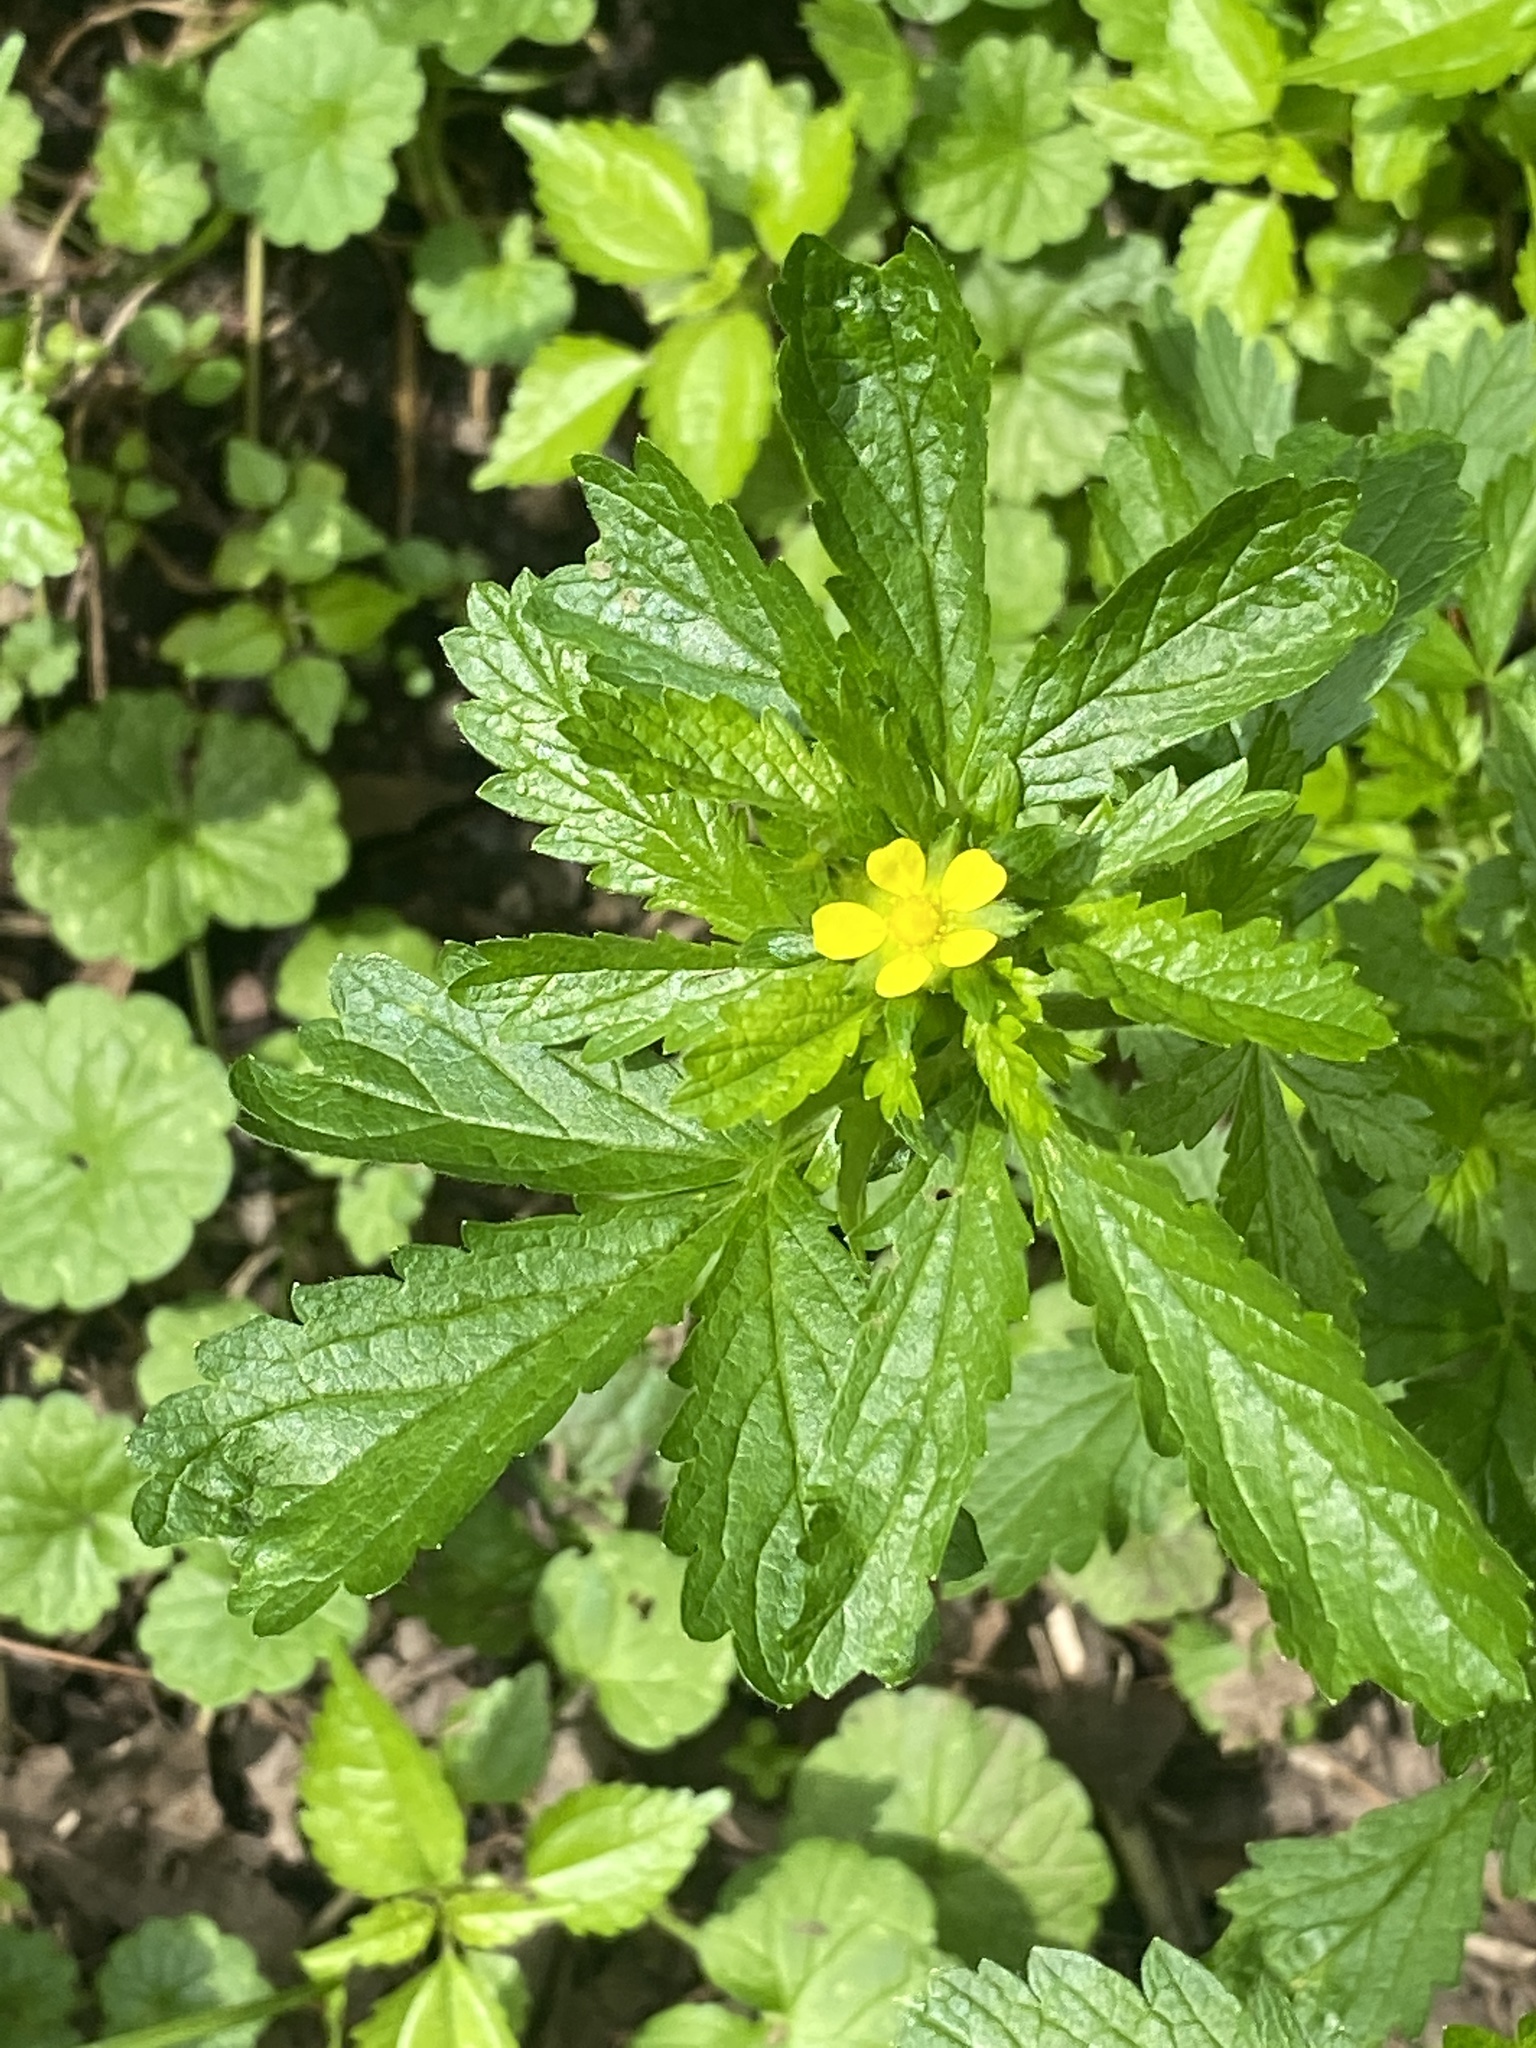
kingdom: Plantae
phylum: Tracheophyta
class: Magnoliopsida
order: Rosales
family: Rosaceae
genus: Potentilla
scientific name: Potentilla norvegica
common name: Ternate-leaved cinquefoil
